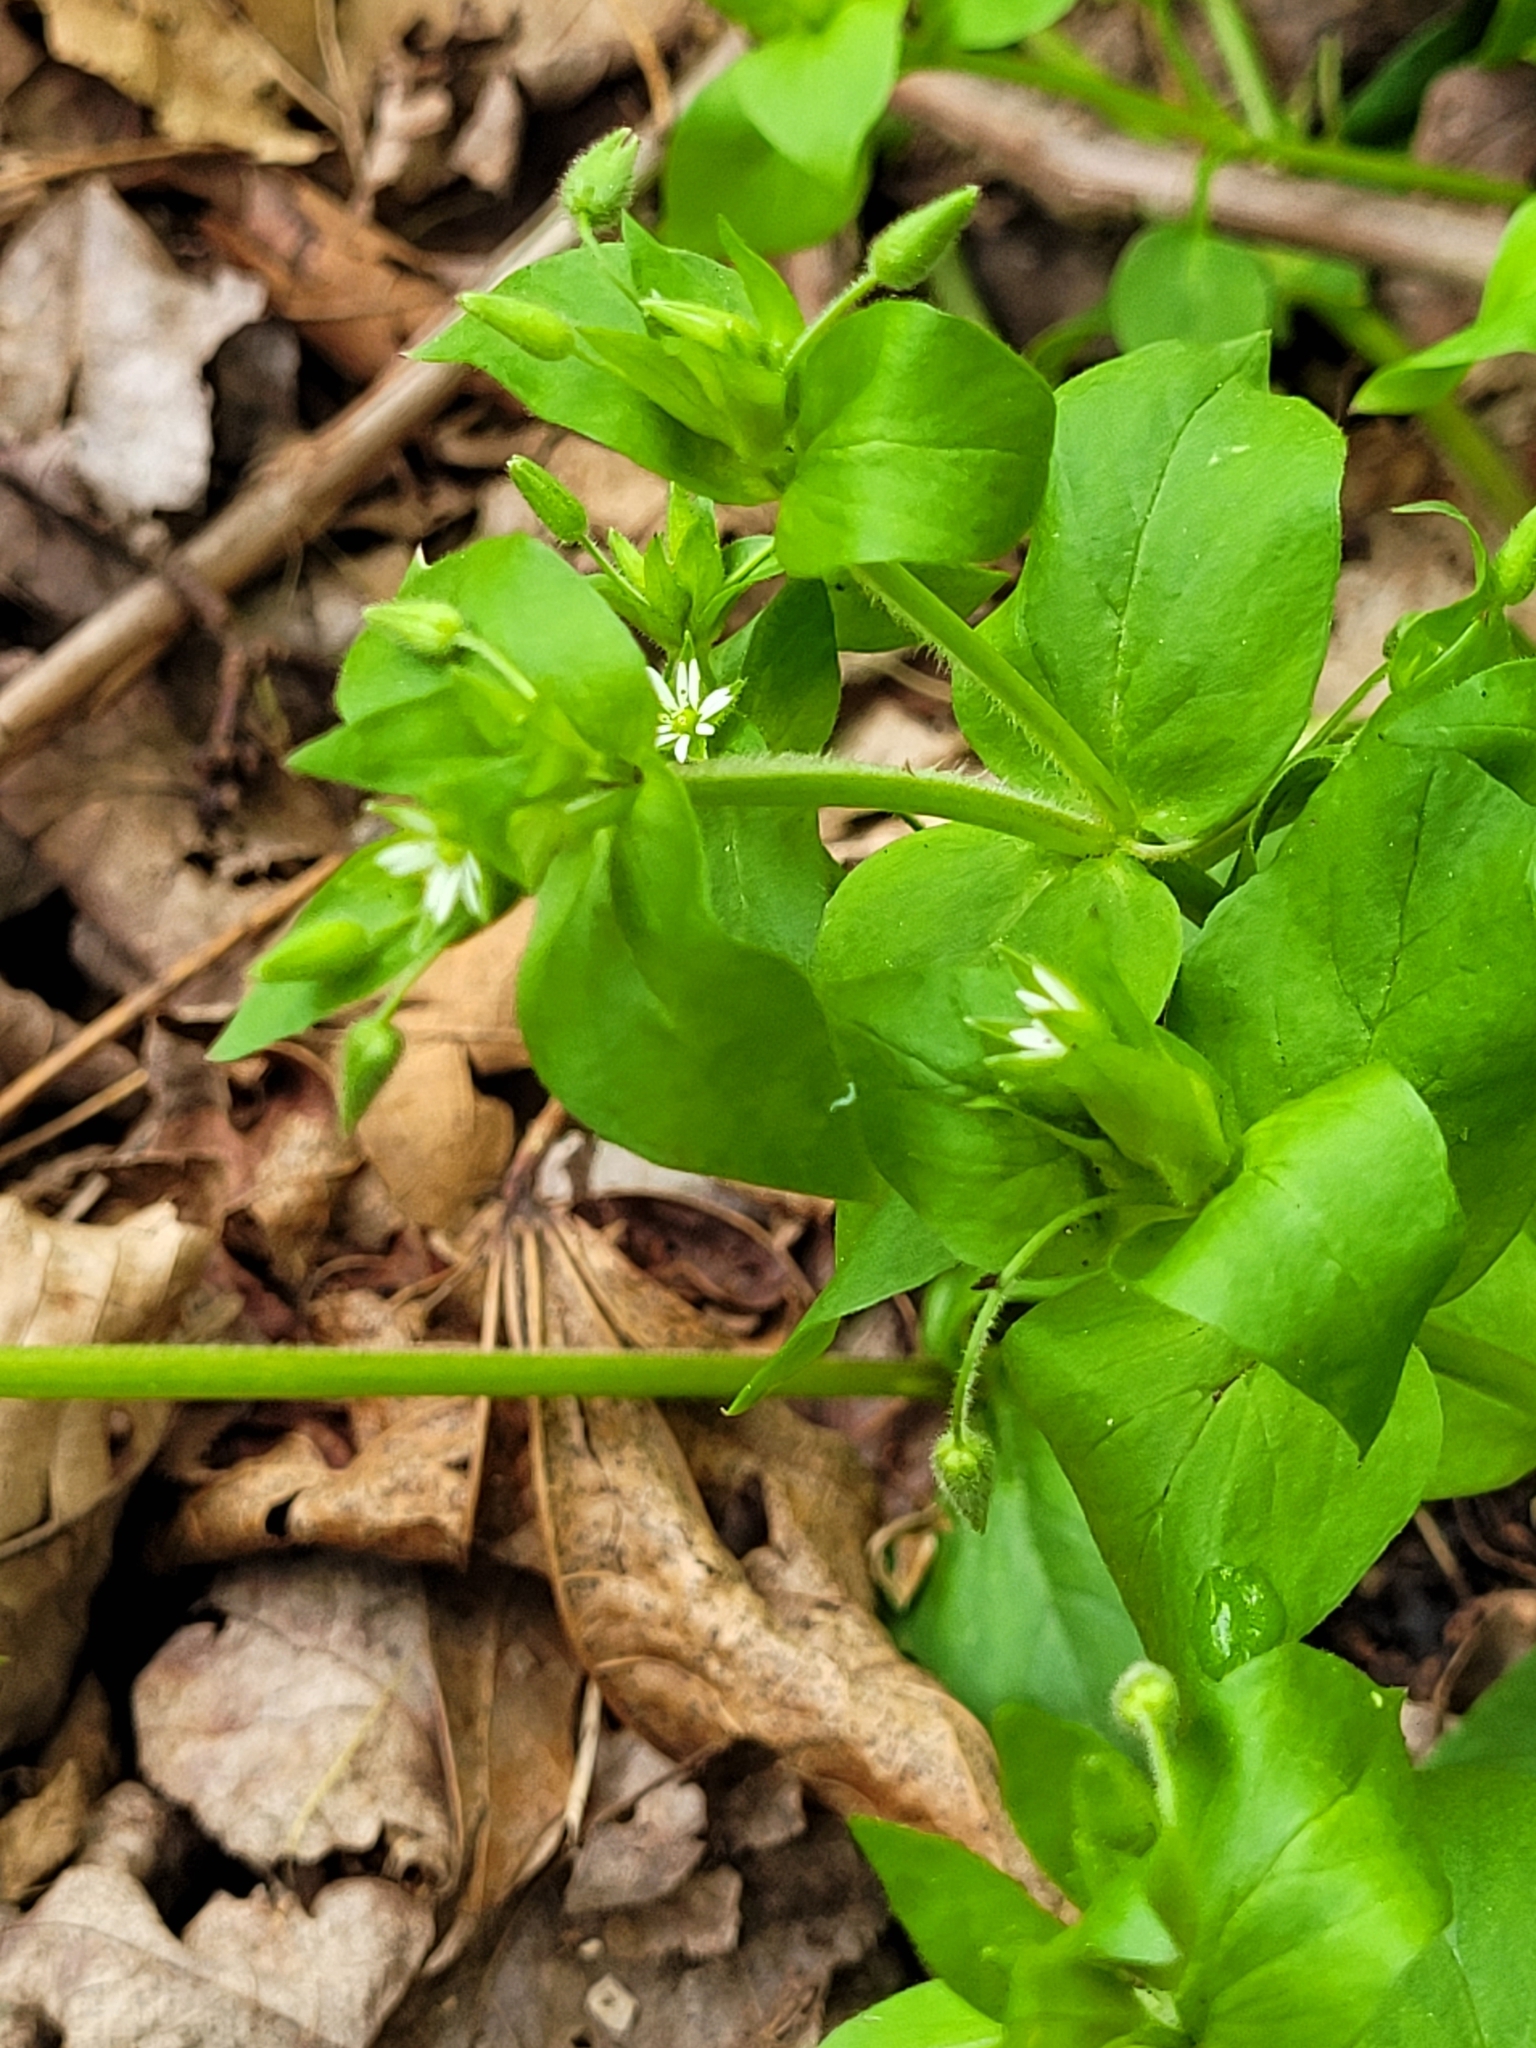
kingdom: Plantae
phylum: Tracheophyta
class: Magnoliopsida
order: Caryophyllales
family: Caryophyllaceae
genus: Stellaria
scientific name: Stellaria media
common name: Common chickweed
